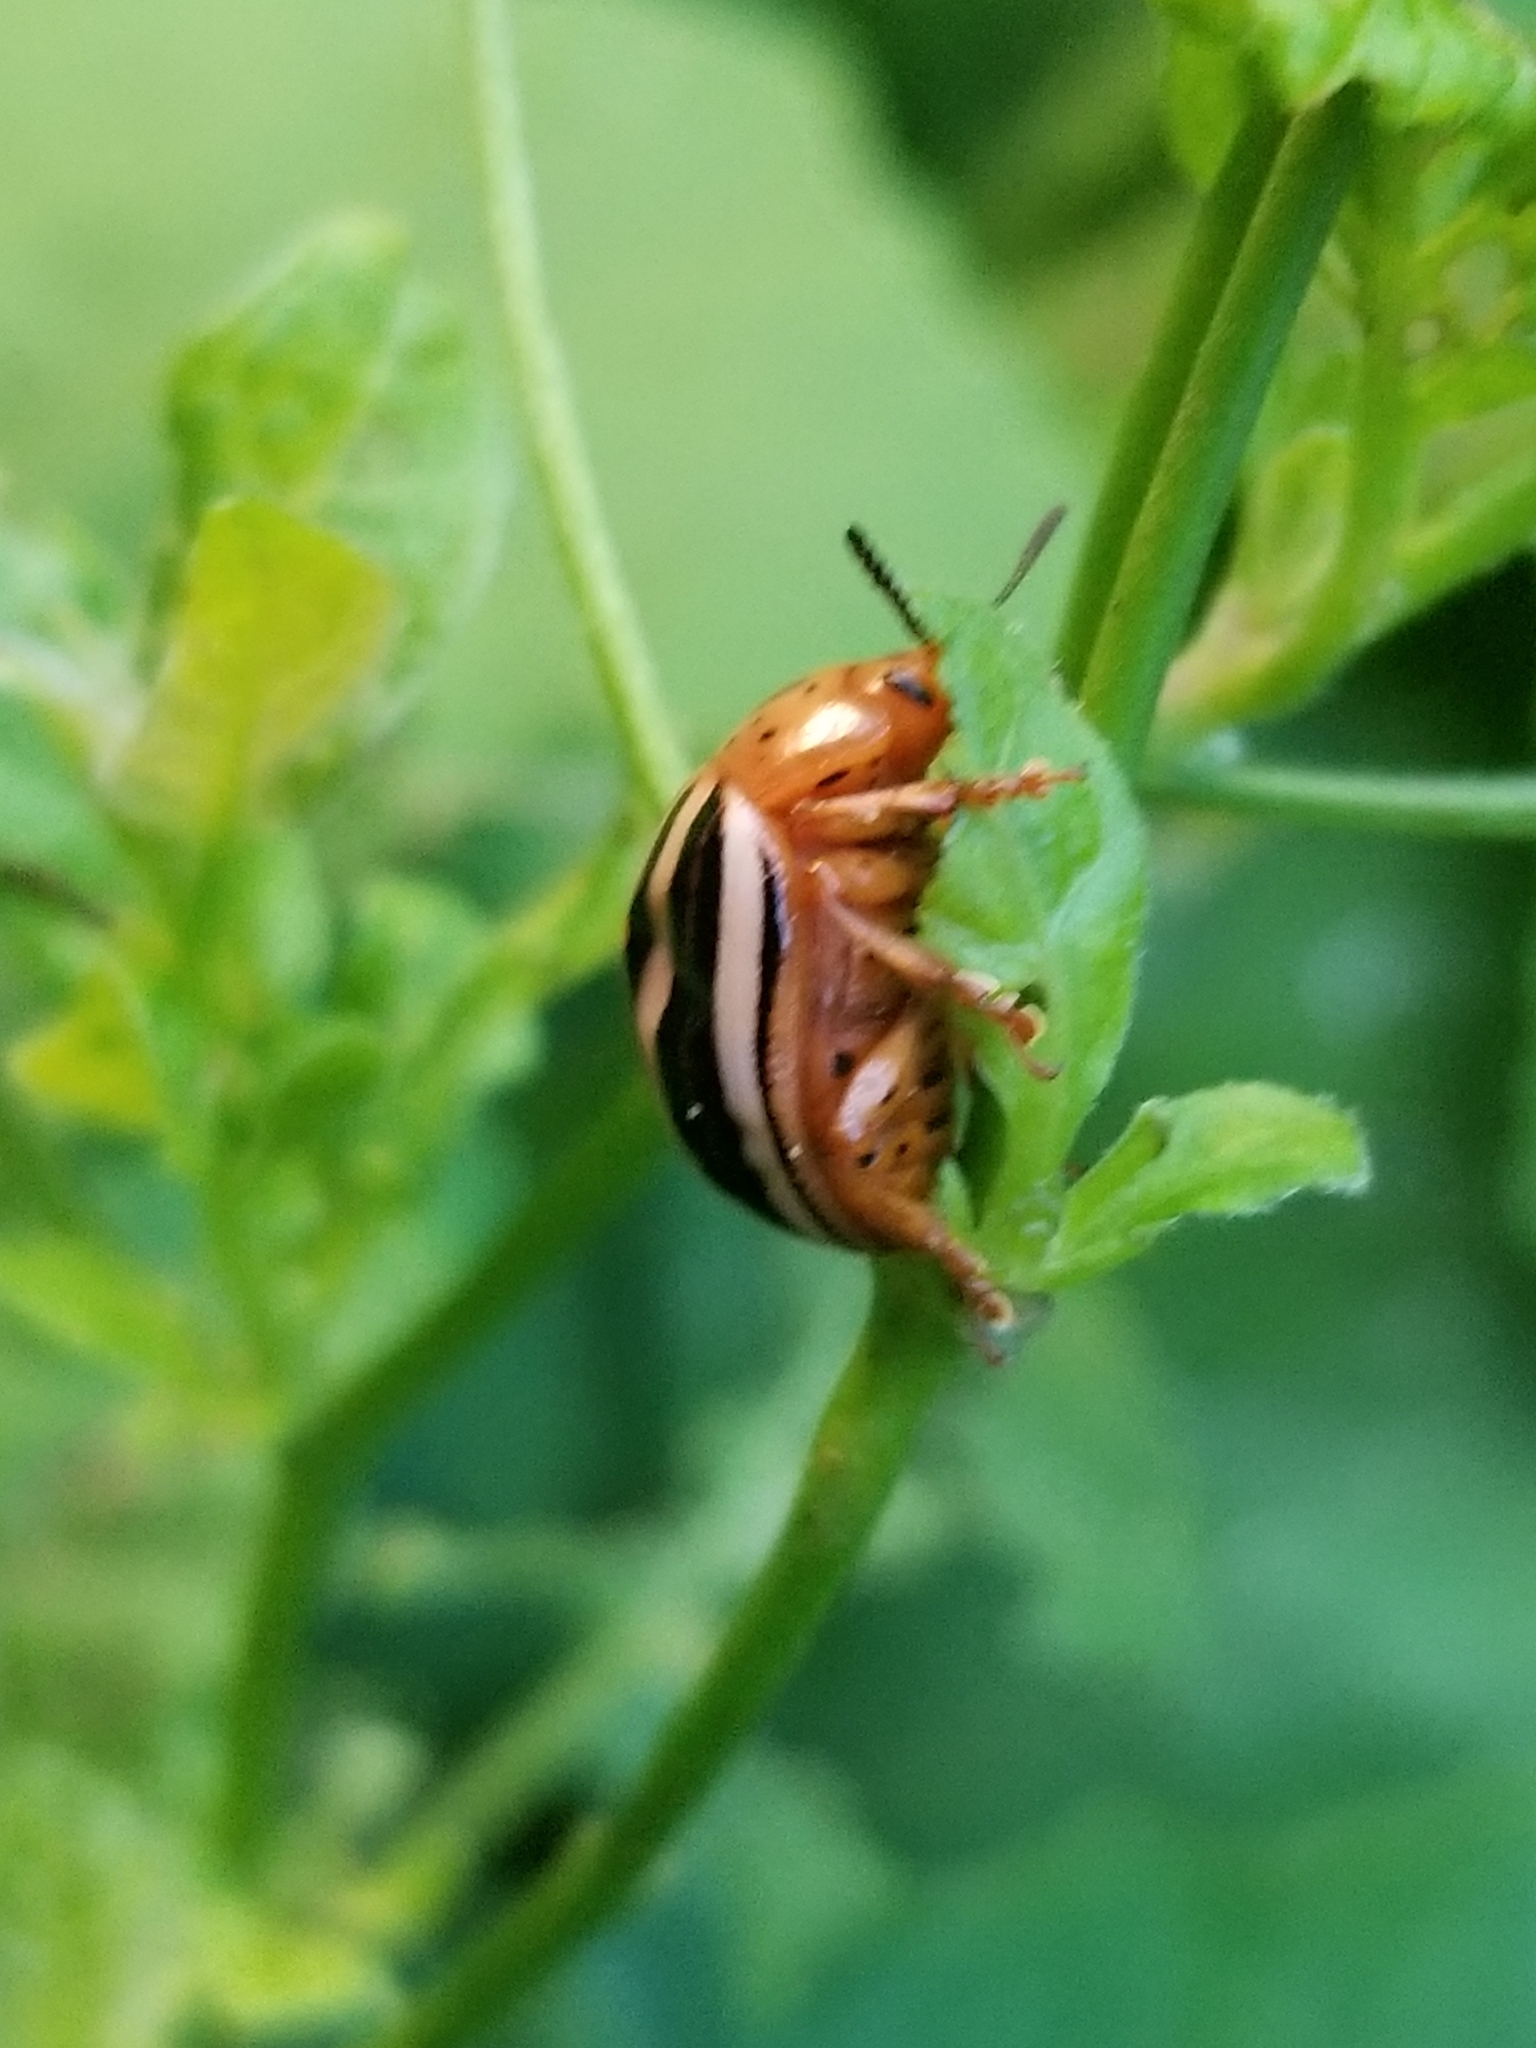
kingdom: Animalia
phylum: Arthropoda
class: Insecta
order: Coleoptera
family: Chrysomelidae
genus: Leptinotarsa
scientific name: Leptinotarsa juncta
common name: False potato beetle
